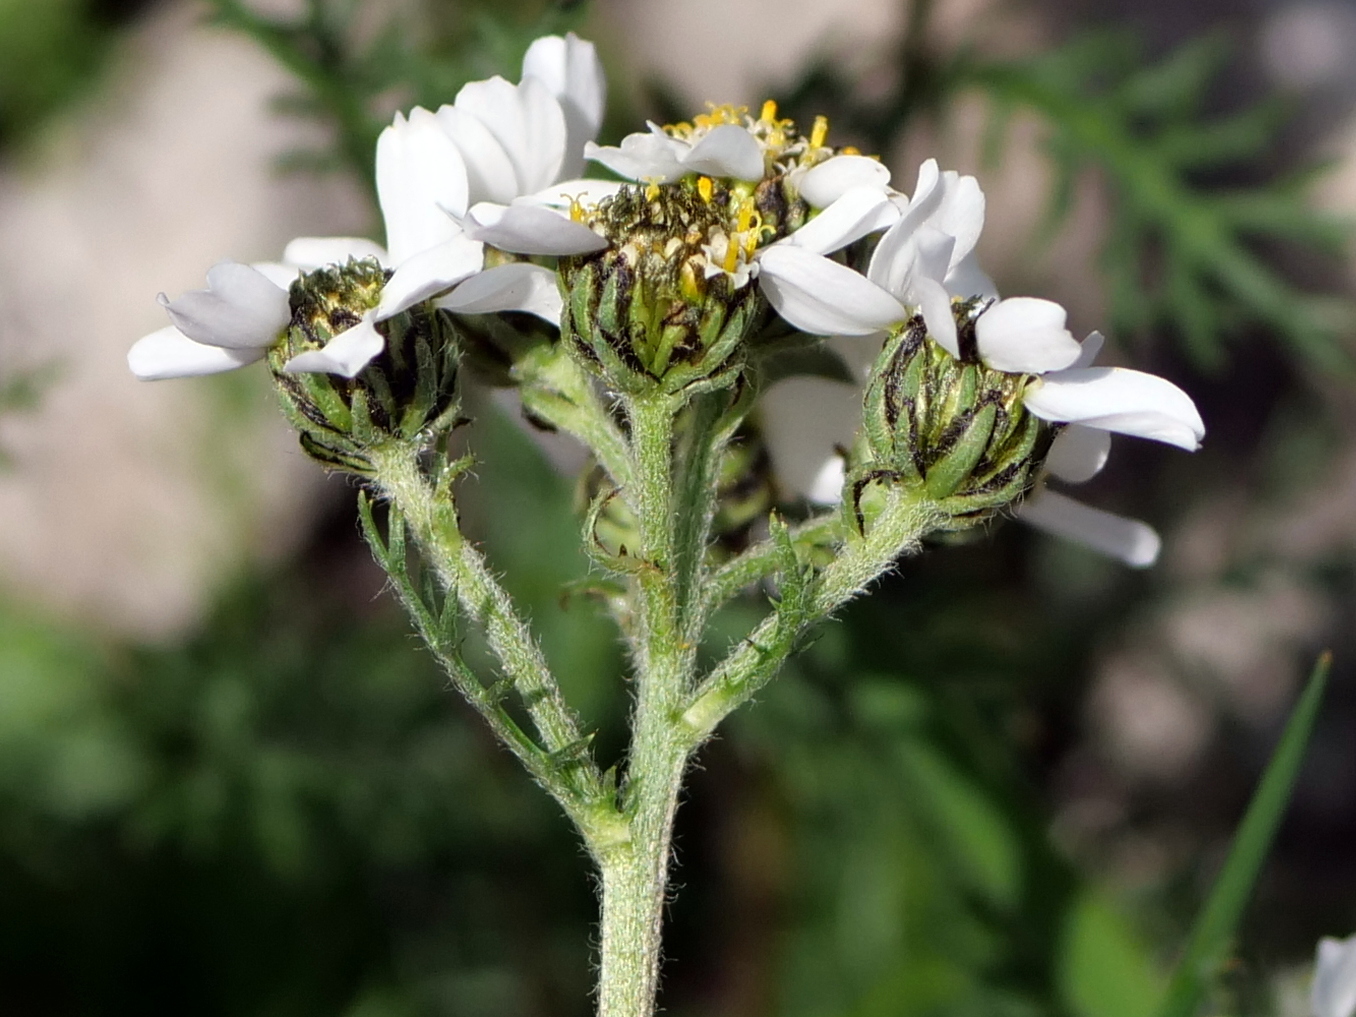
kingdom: Plantae
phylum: Tracheophyta
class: Magnoliopsida
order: Asterales
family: Asteraceae
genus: Achillea
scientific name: Achillea atrata
